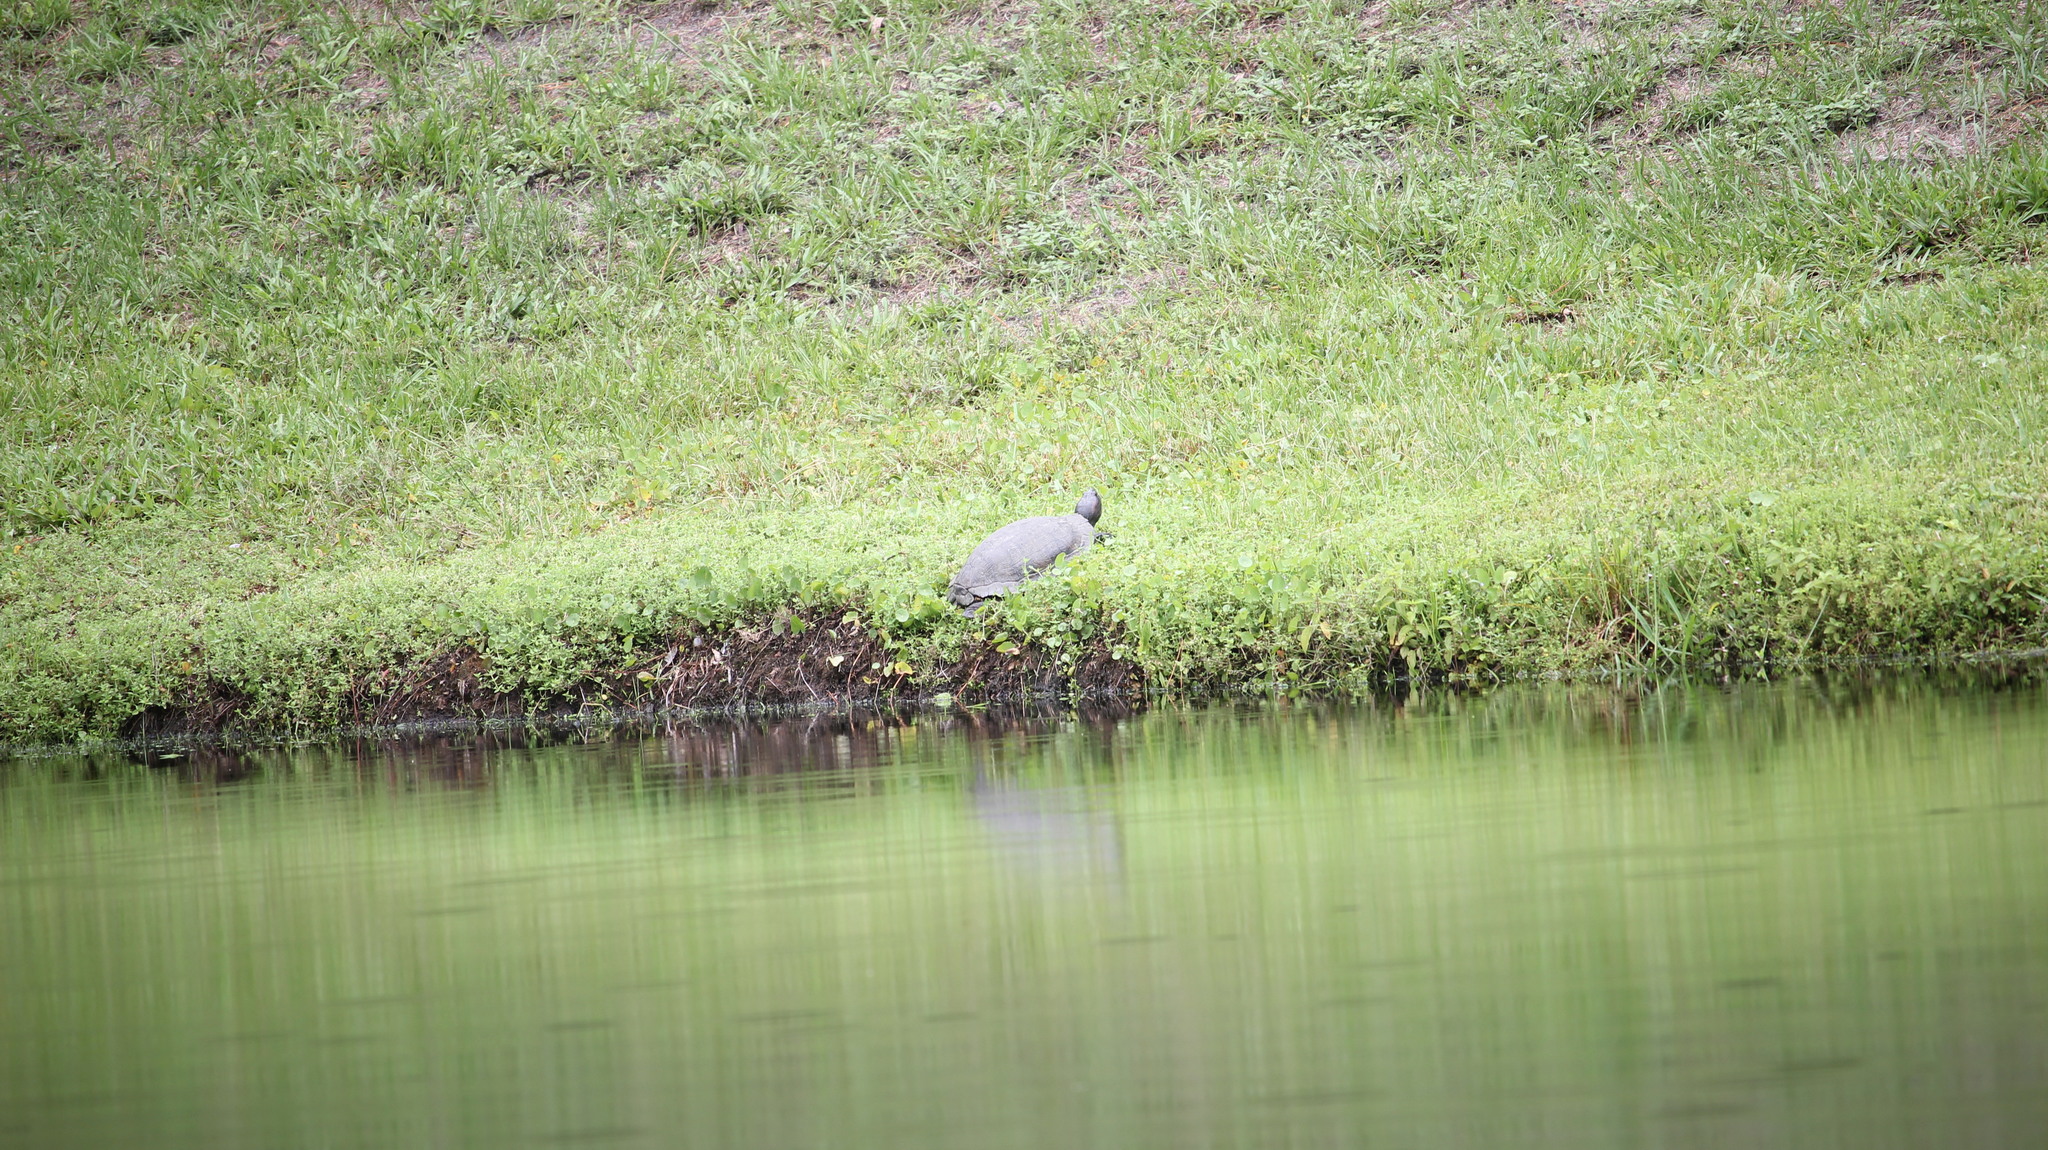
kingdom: Animalia
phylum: Chordata
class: Testudines
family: Emydidae
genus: Trachemys
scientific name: Trachemys scripta
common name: Slider
